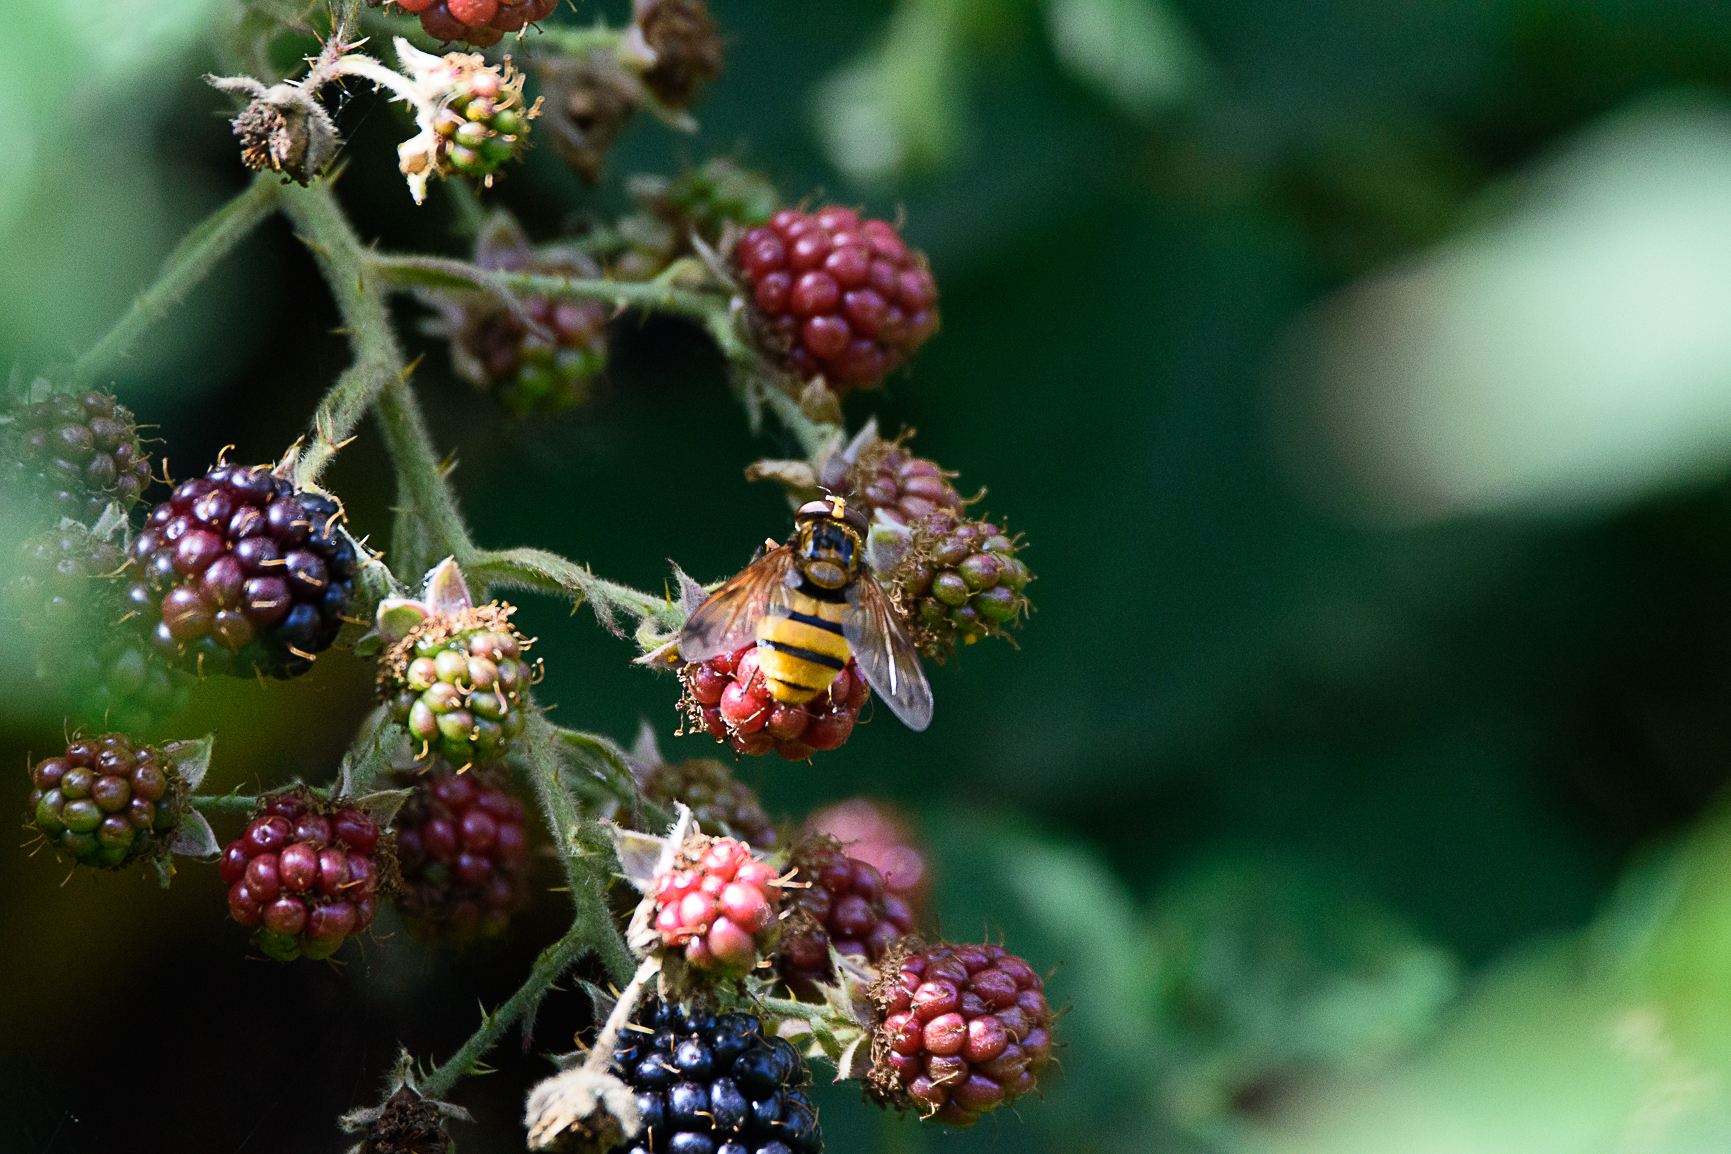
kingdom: Animalia
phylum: Arthropoda
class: Insecta
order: Diptera
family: Syrphidae
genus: Volucella
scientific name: Volucella inanis
